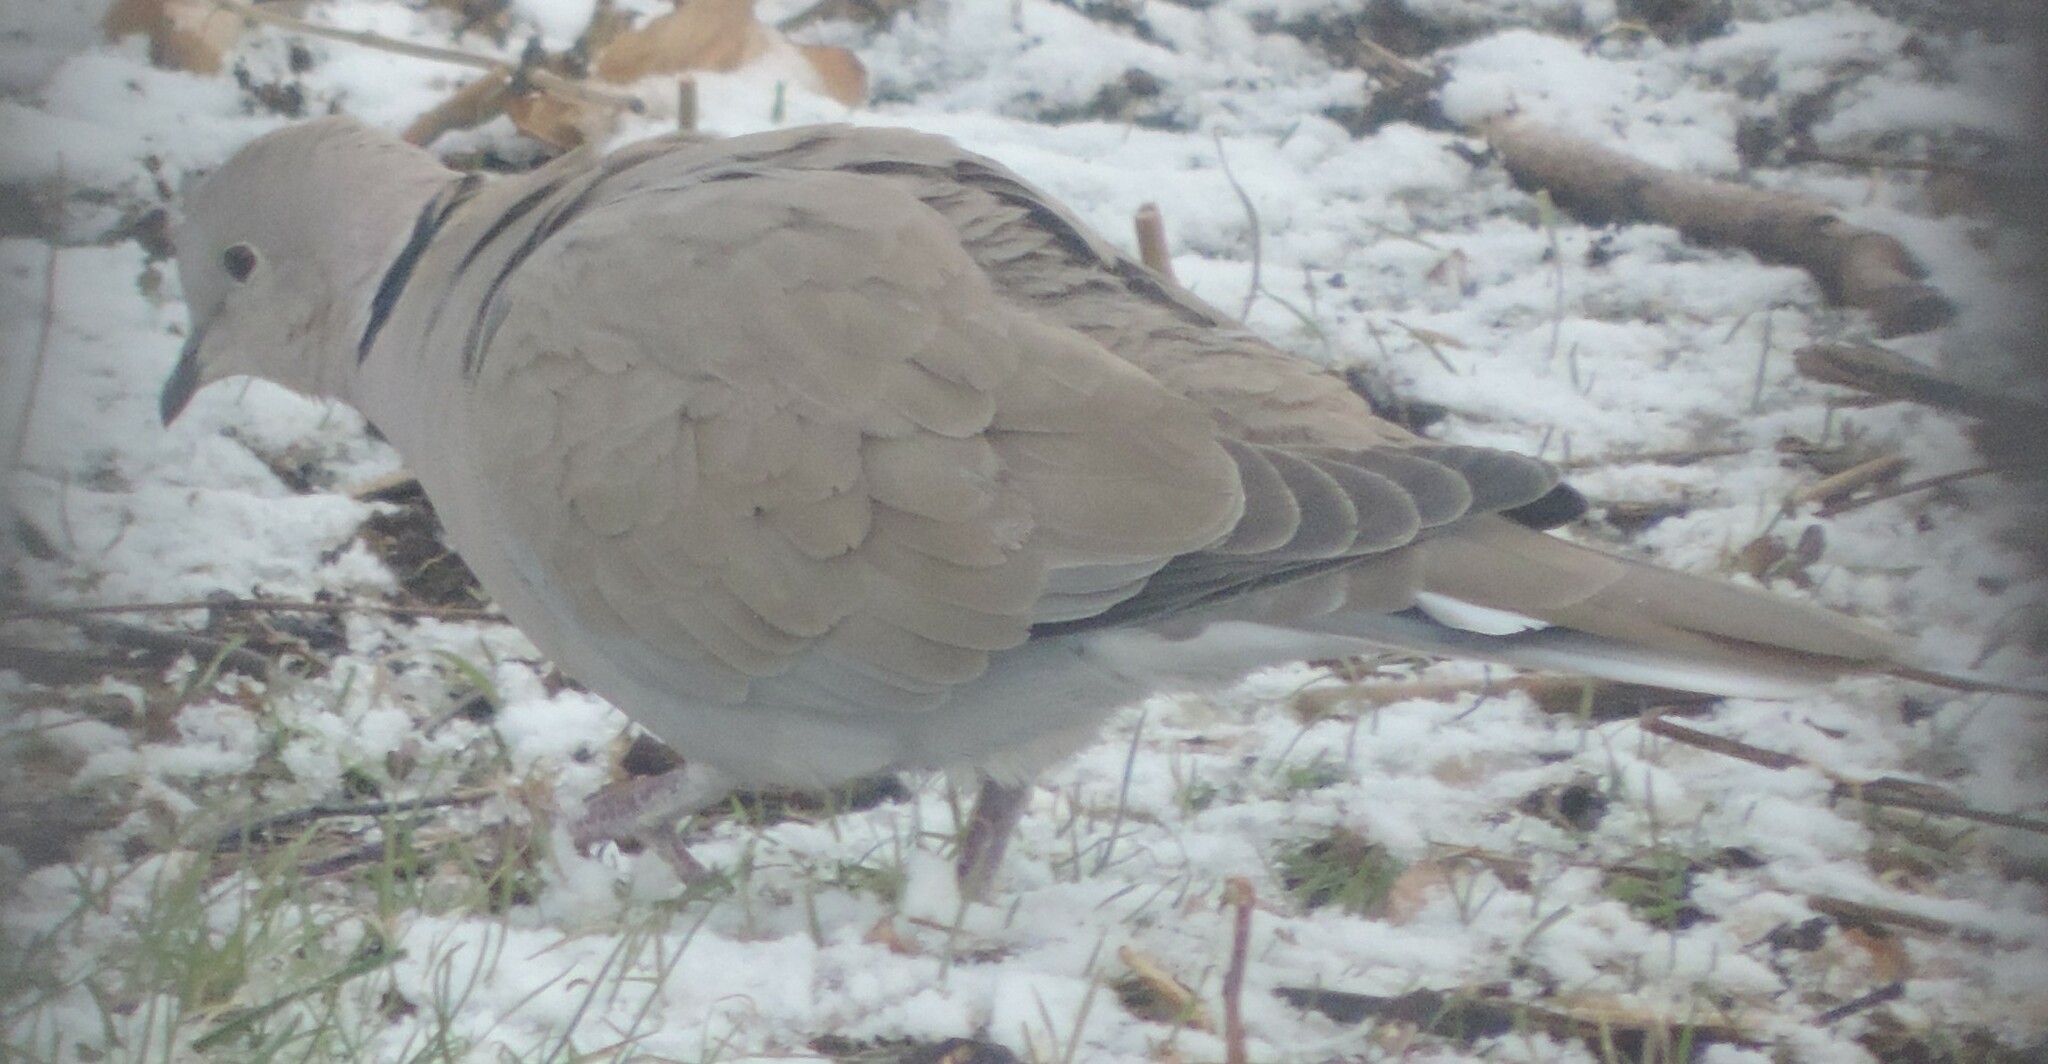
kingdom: Animalia
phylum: Chordata
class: Aves
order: Columbiformes
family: Columbidae
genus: Streptopelia
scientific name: Streptopelia decaocto
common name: Eurasian collared dove
